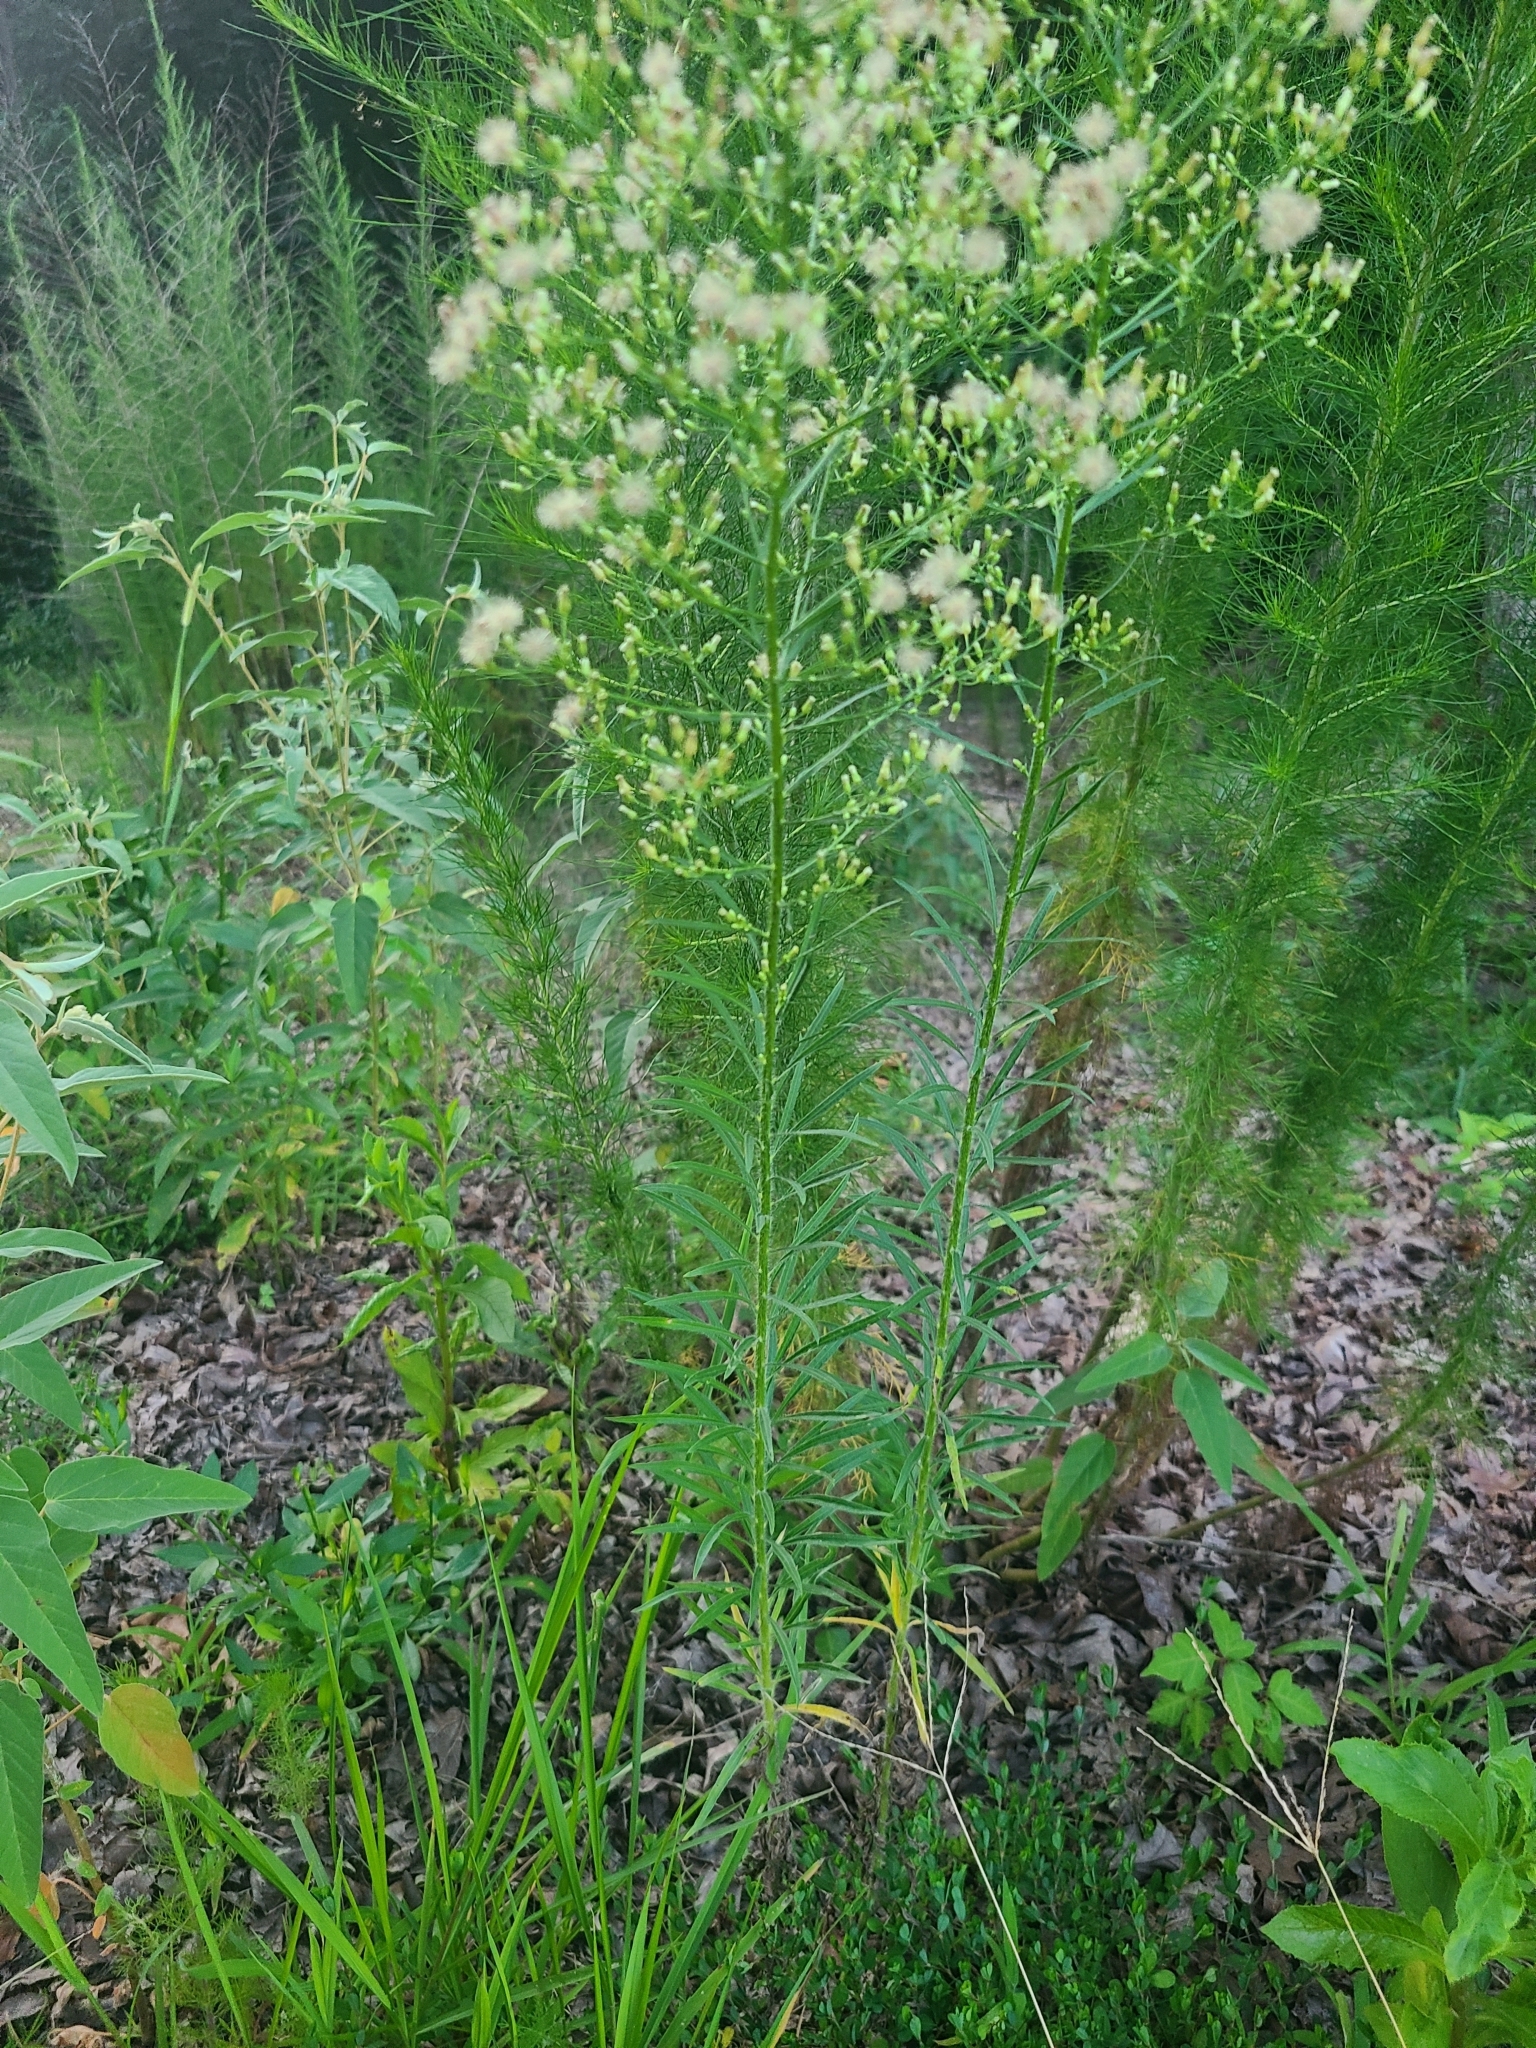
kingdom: Plantae
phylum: Tracheophyta
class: Magnoliopsida
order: Asterales
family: Asteraceae
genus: Erigeron
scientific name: Erigeron canadensis
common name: Canadian fleabane
